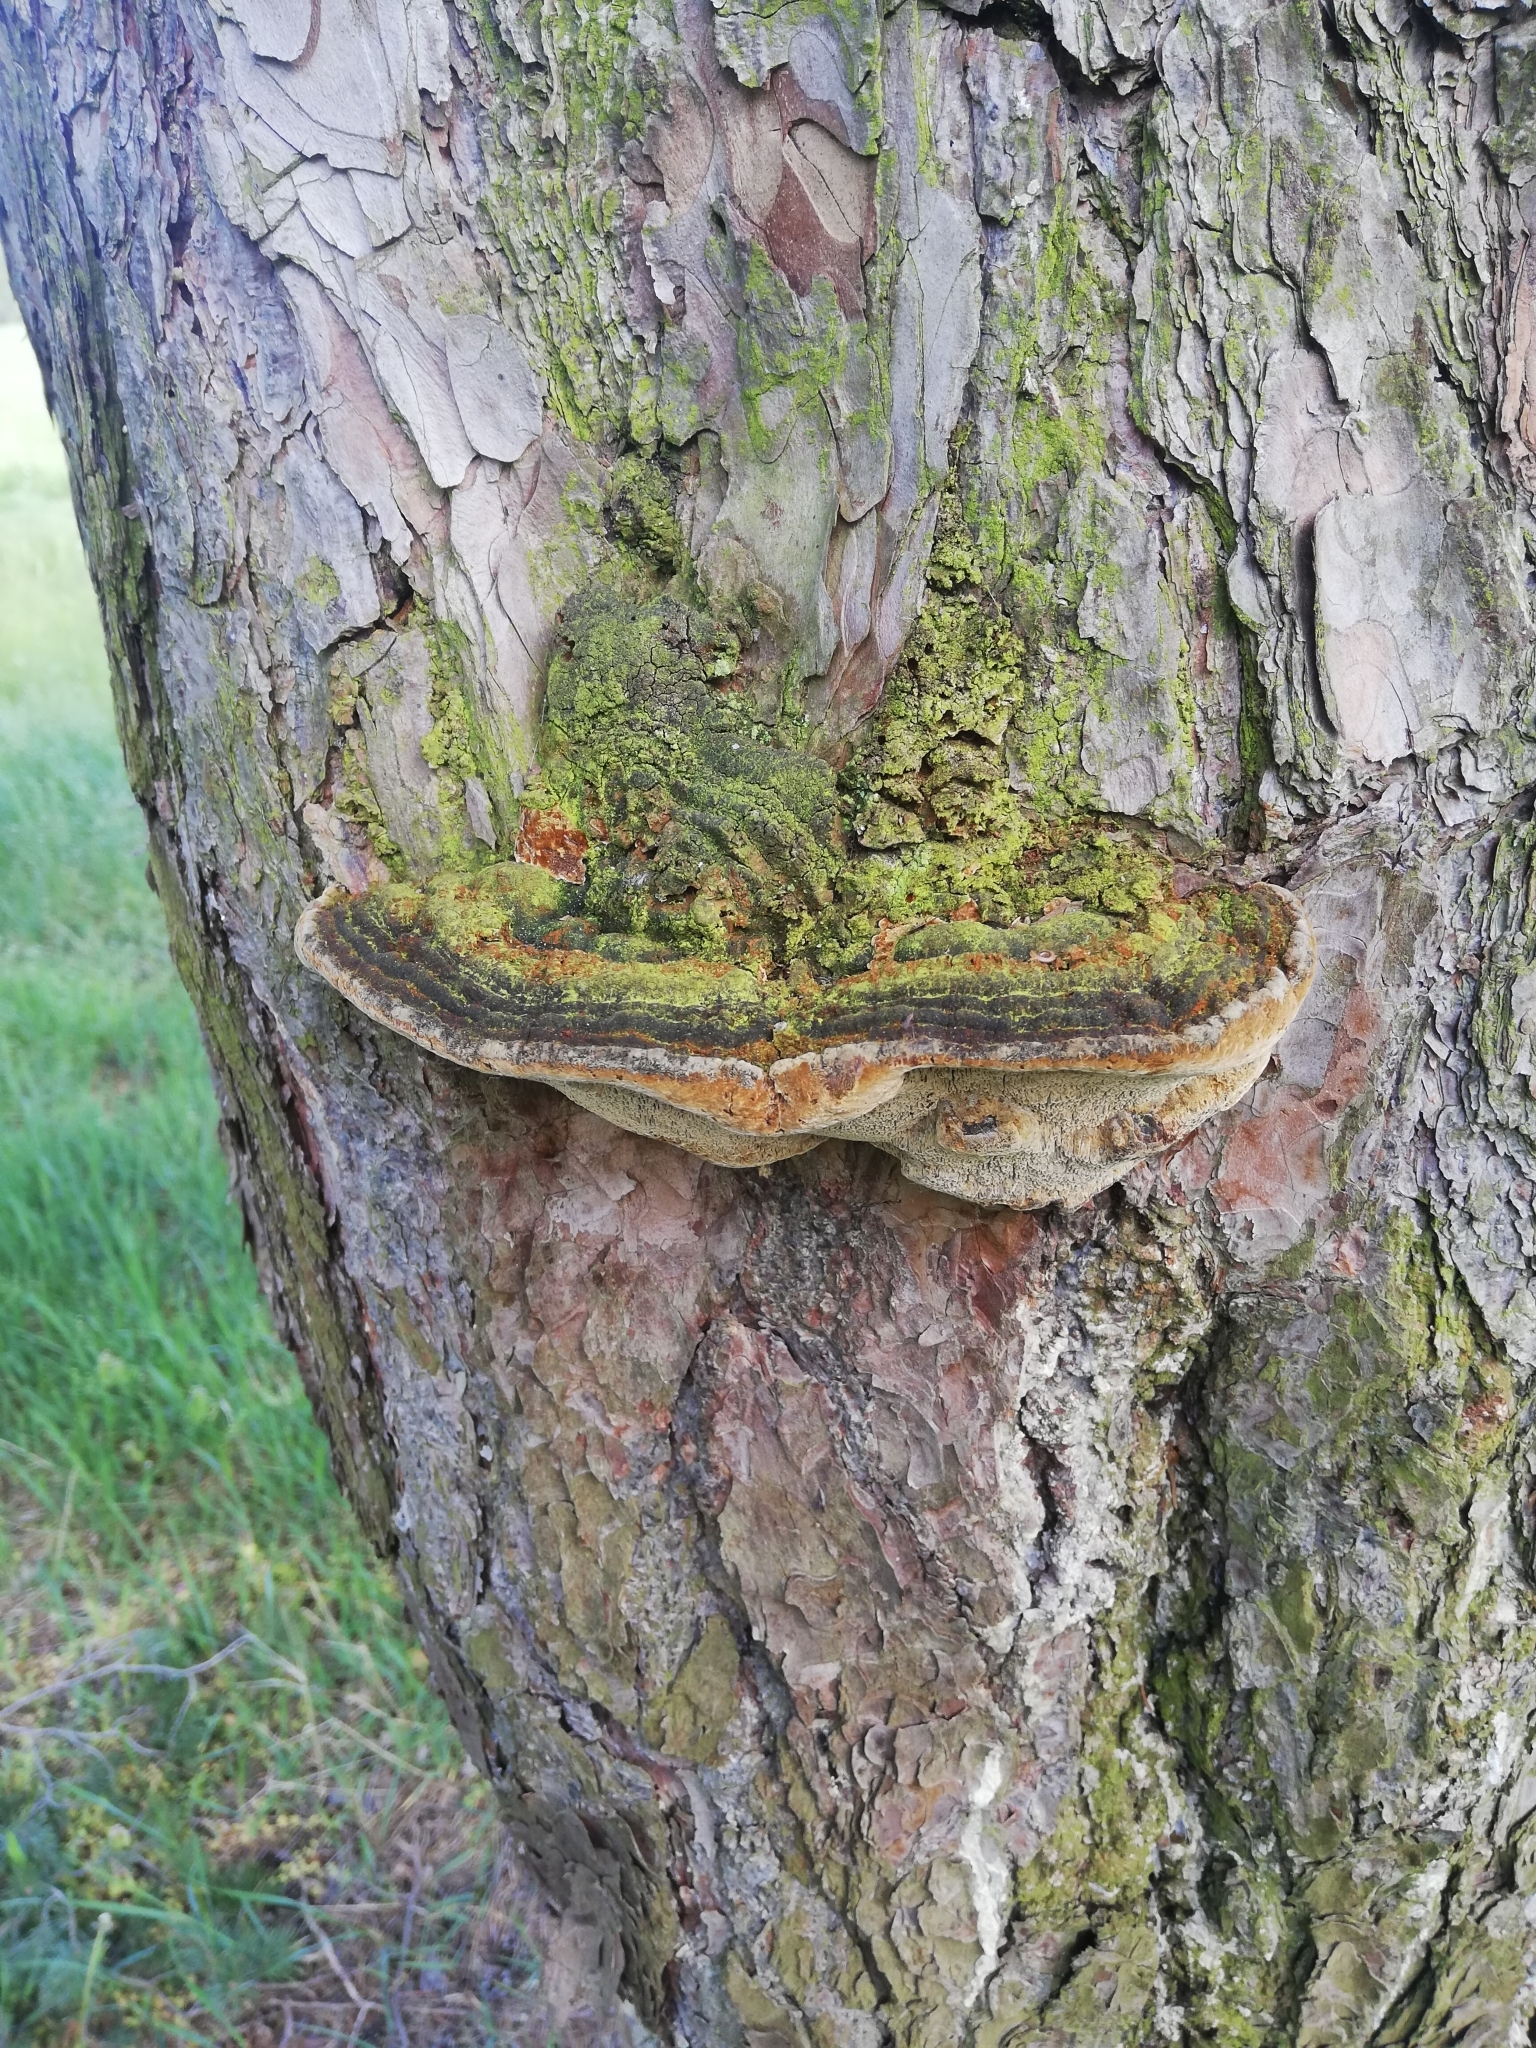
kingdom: Fungi
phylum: Basidiomycota
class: Agaricomycetes
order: Hymenochaetales
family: Hymenochaetaceae
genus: Porodaedalea
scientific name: Porodaedalea pini
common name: Pine bracket
